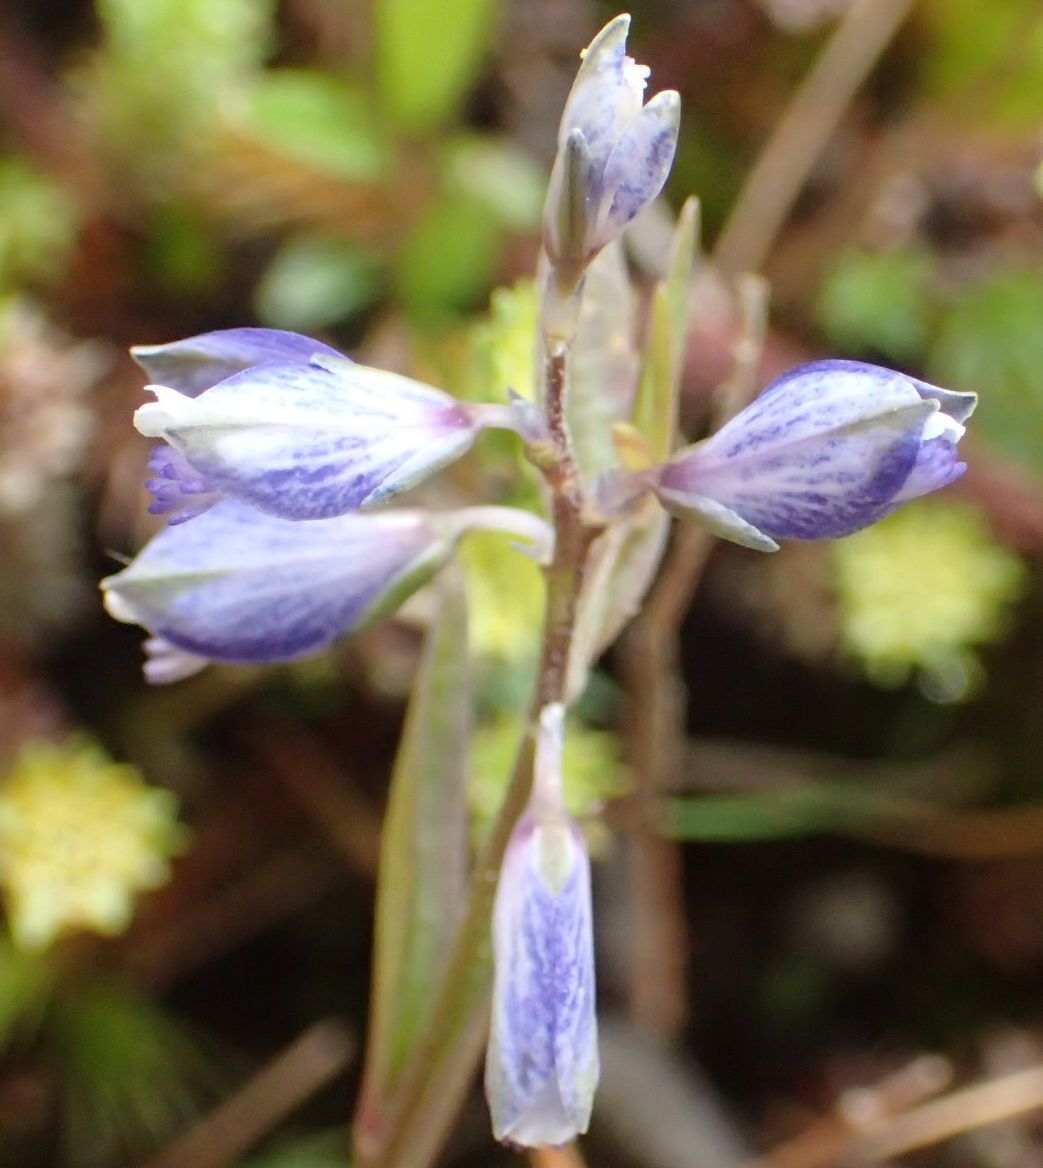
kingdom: Plantae
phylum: Tracheophyta
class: Magnoliopsida
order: Fabales
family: Polygalaceae
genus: Polygala
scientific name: Polygala serpyllifolia
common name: Heath milkwort
